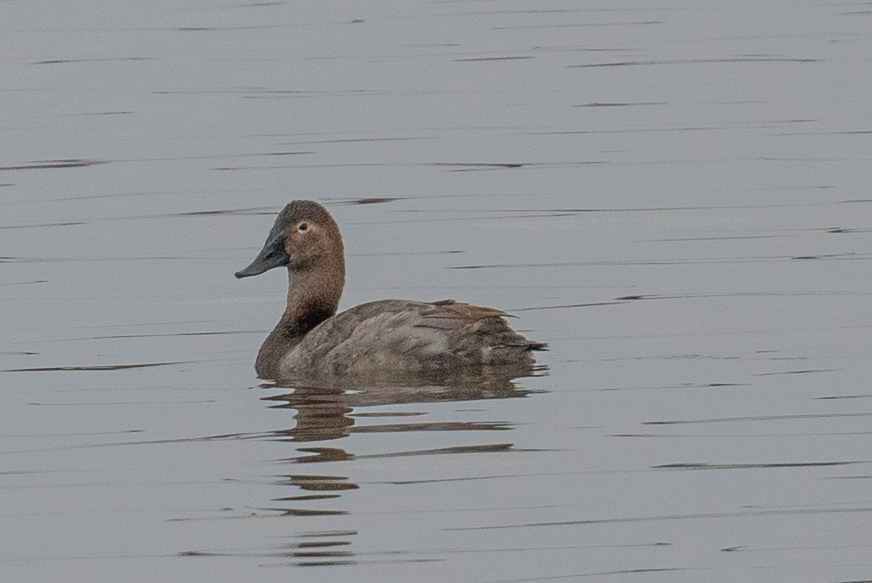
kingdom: Animalia
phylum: Chordata
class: Aves
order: Anseriformes
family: Anatidae
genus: Aythya
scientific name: Aythya valisineria
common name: Canvasback
